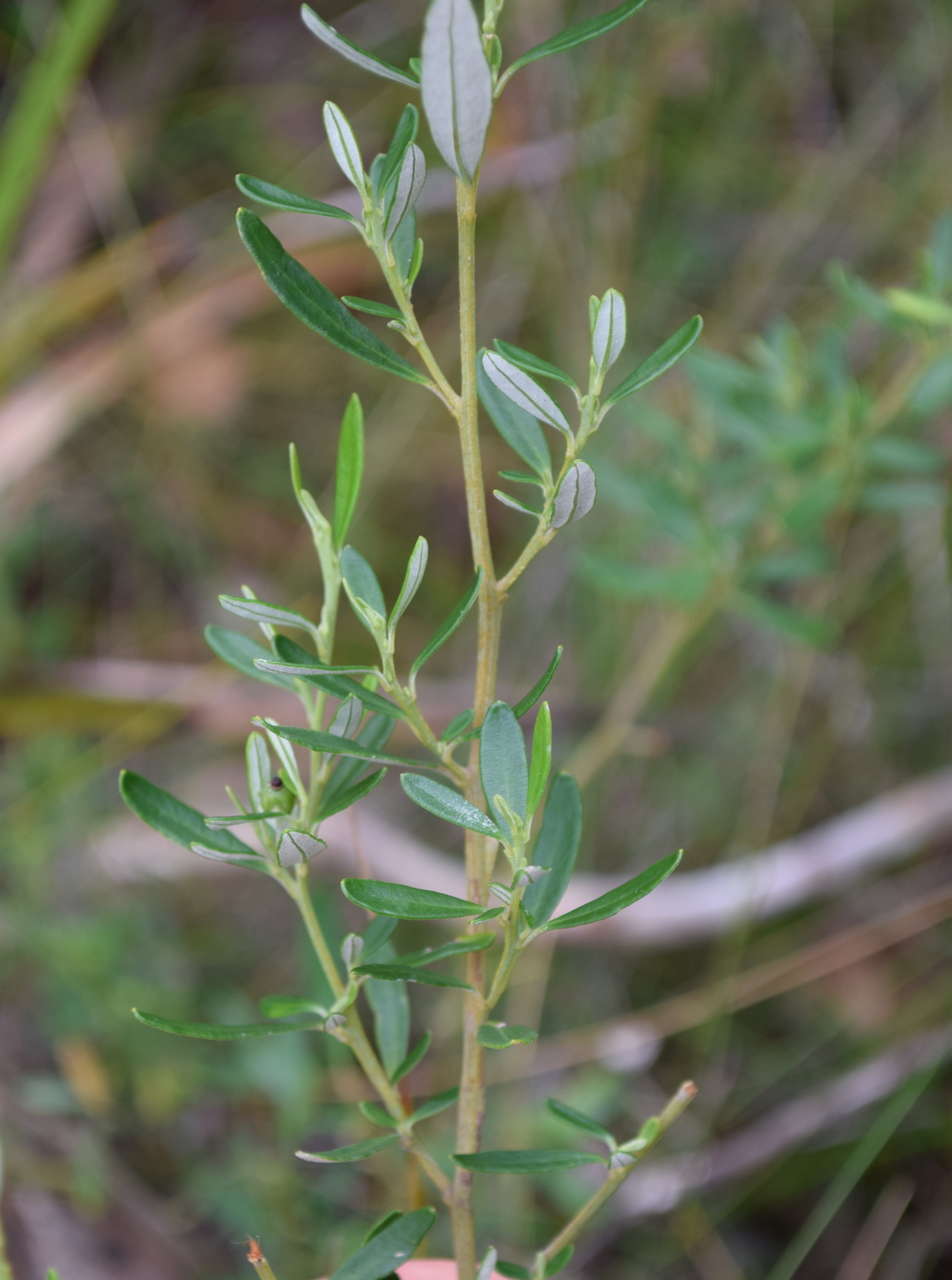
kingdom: Plantae
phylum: Tracheophyta
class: Magnoliopsida
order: Malpighiales
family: Euphorbiaceae
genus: Beyeria
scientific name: Beyeria lechenaultii
